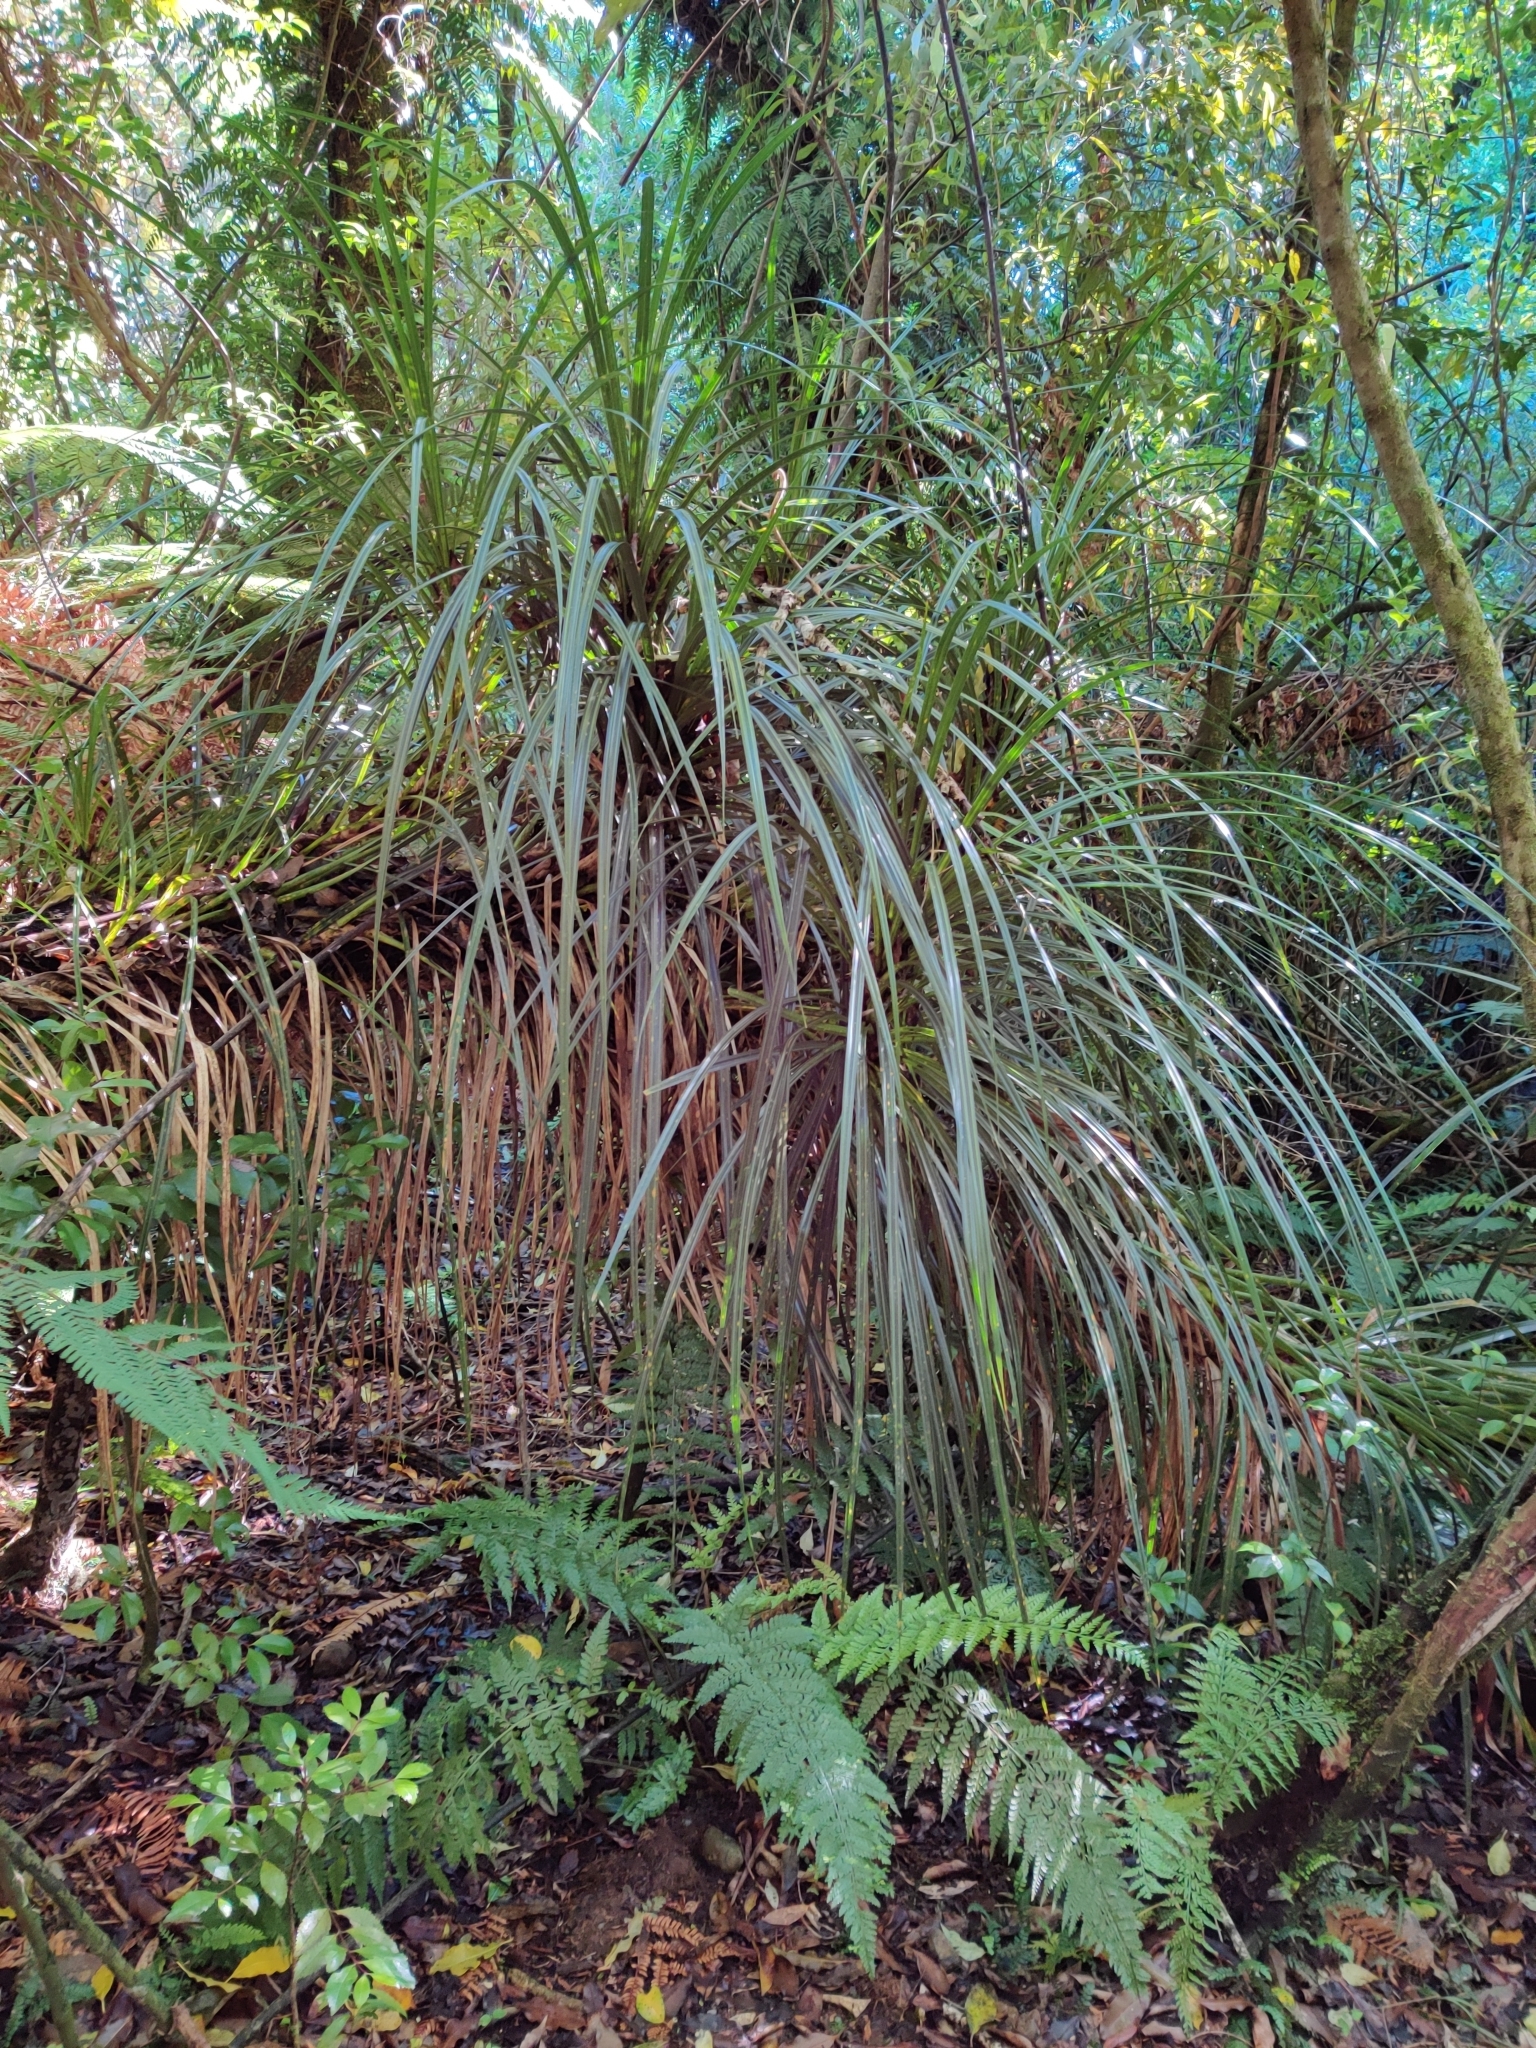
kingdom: Plantae
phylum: Tracheophyta
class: Liliopsida
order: Pandanales
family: Pandanaceae
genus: Freycinetia
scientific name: Freycinetia banksii
